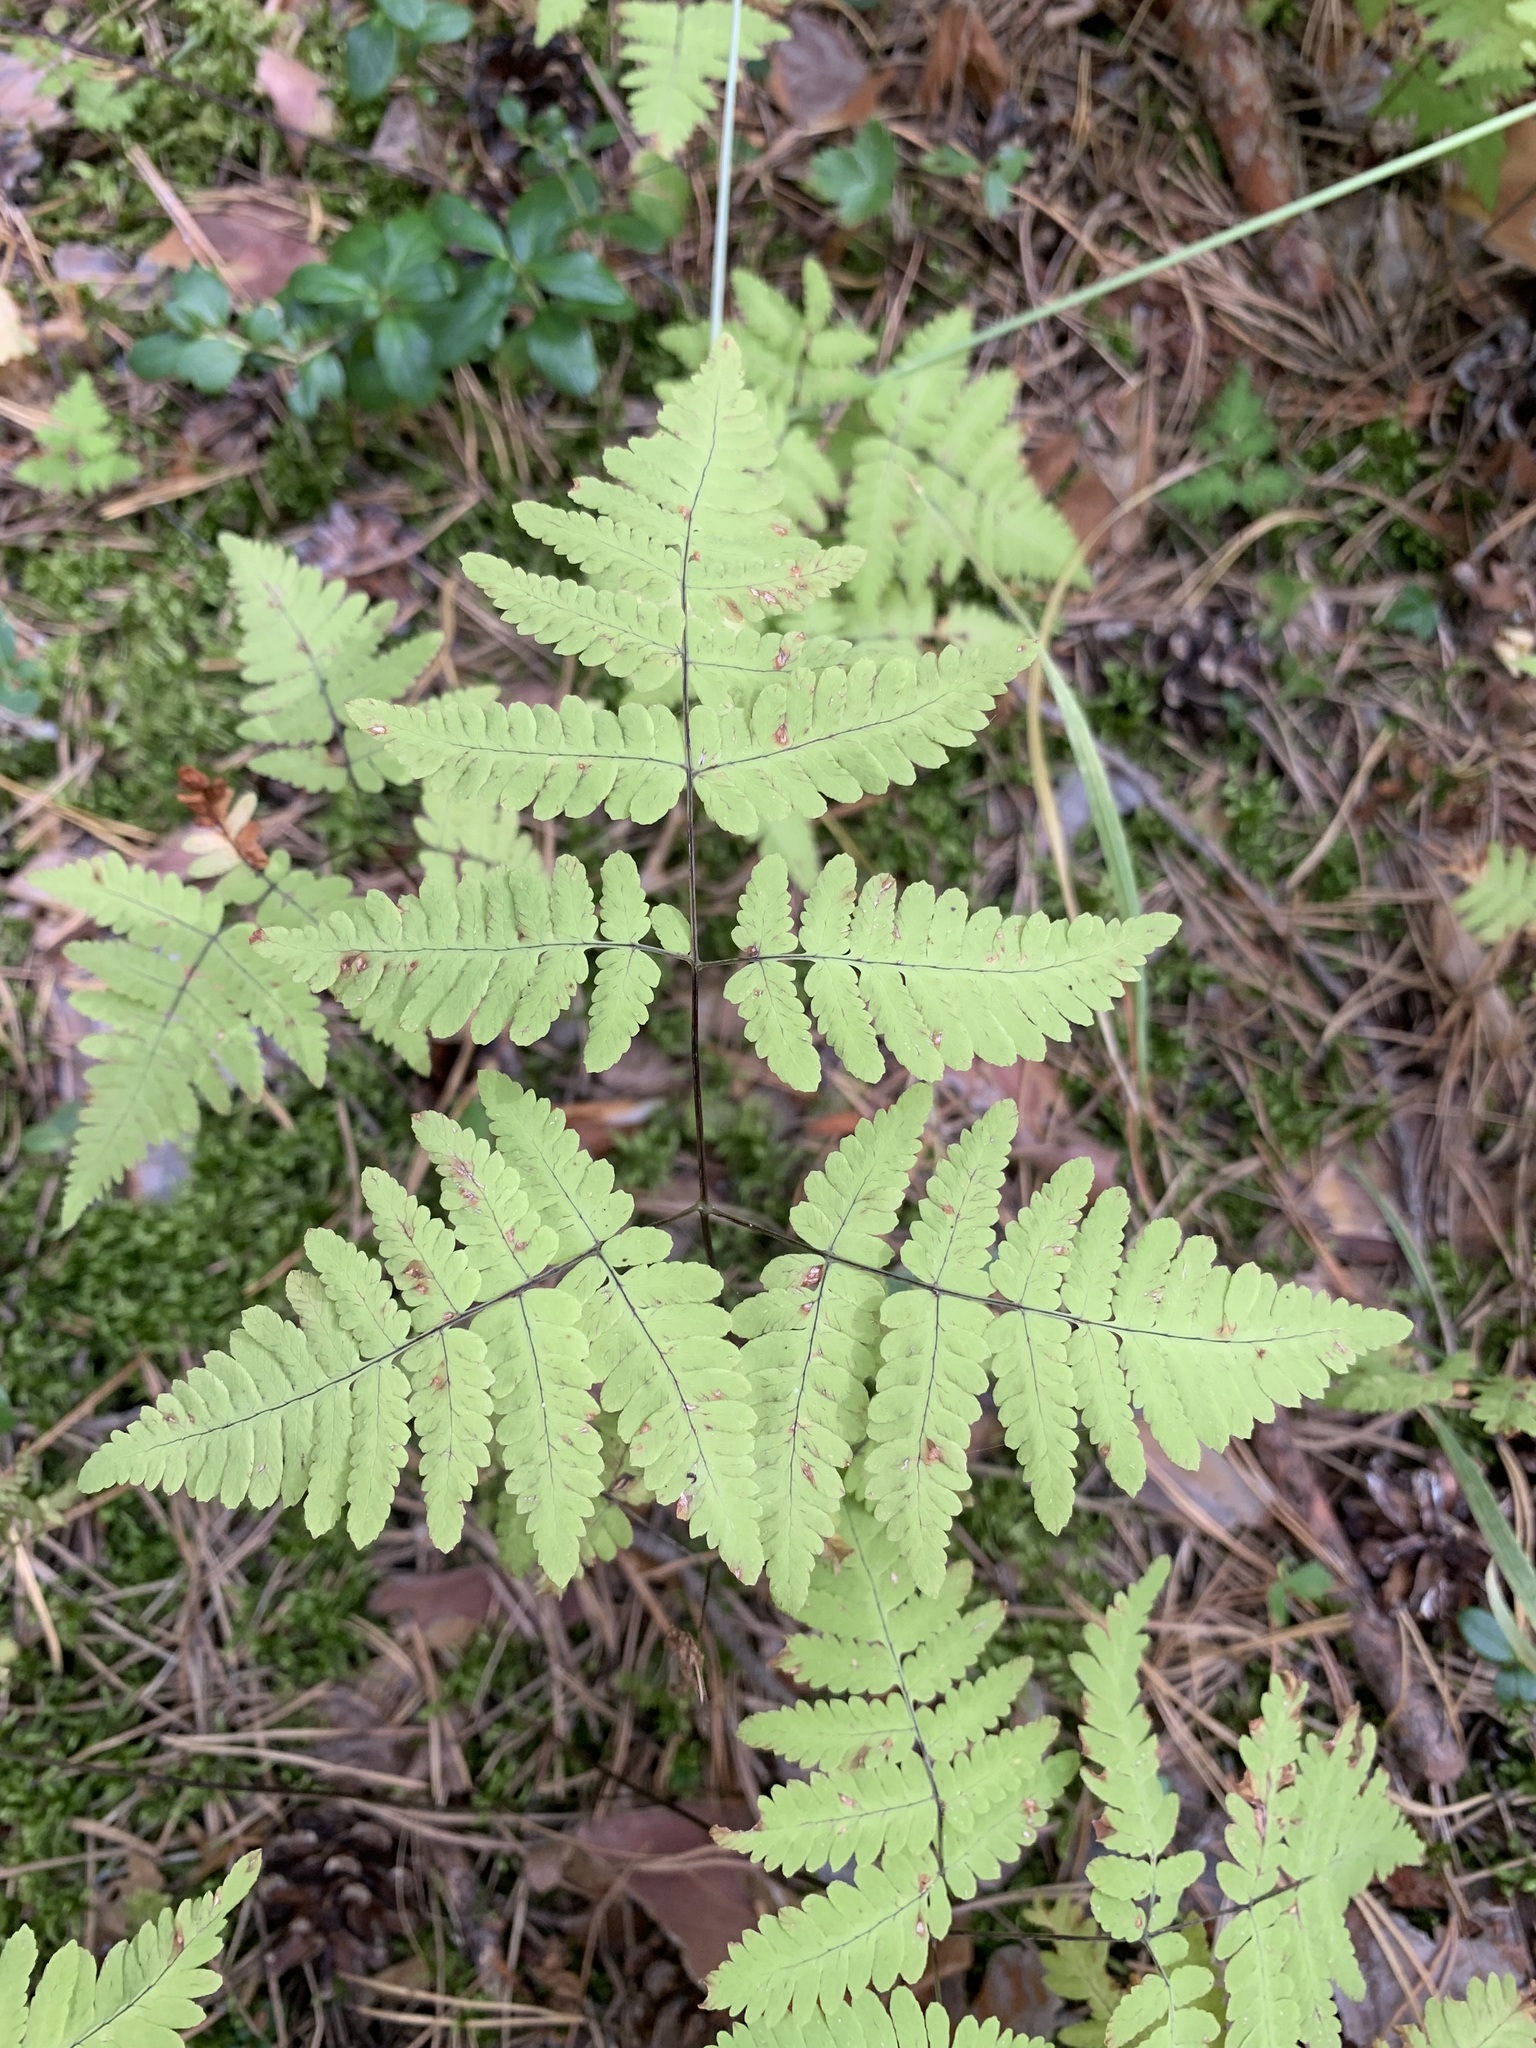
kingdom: Plantae
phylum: Tracheophyta
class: Polypodiopsida
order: Polypodiales
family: Cystopteridaceae
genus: Gymnocarpium
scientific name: Gymnocarpium dryopteris
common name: Oak fern
